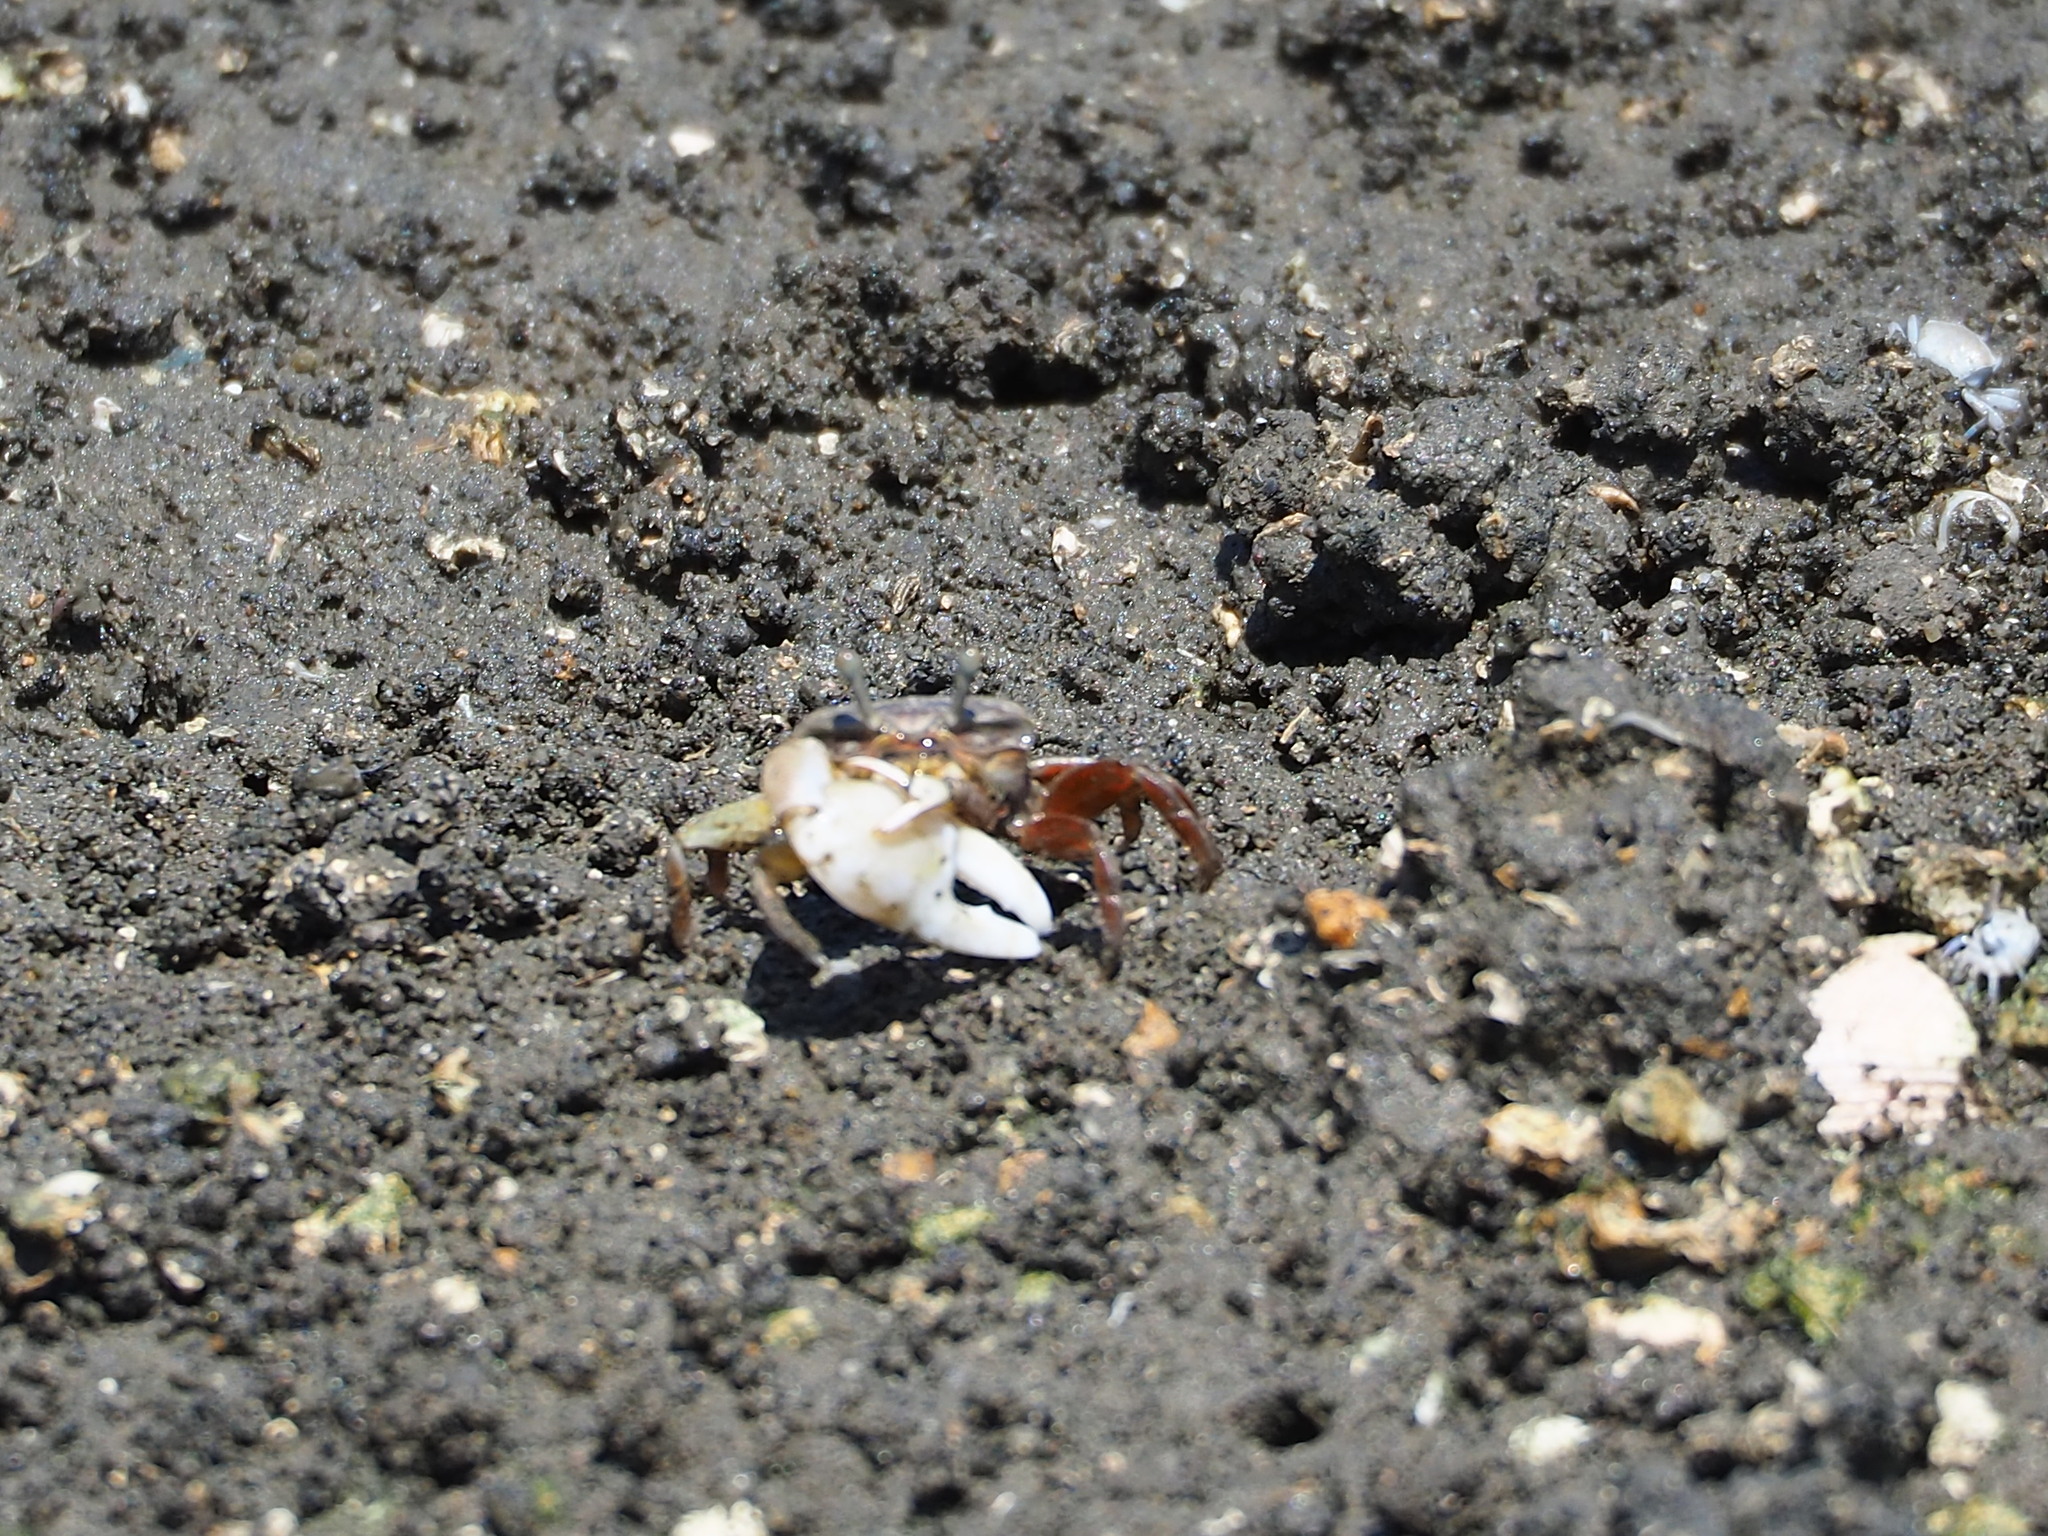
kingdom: Animalia
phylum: Arthropoda
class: Malacostraca
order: Decapoda
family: Ocypodidae
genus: Austruca
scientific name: Austruca lactea
